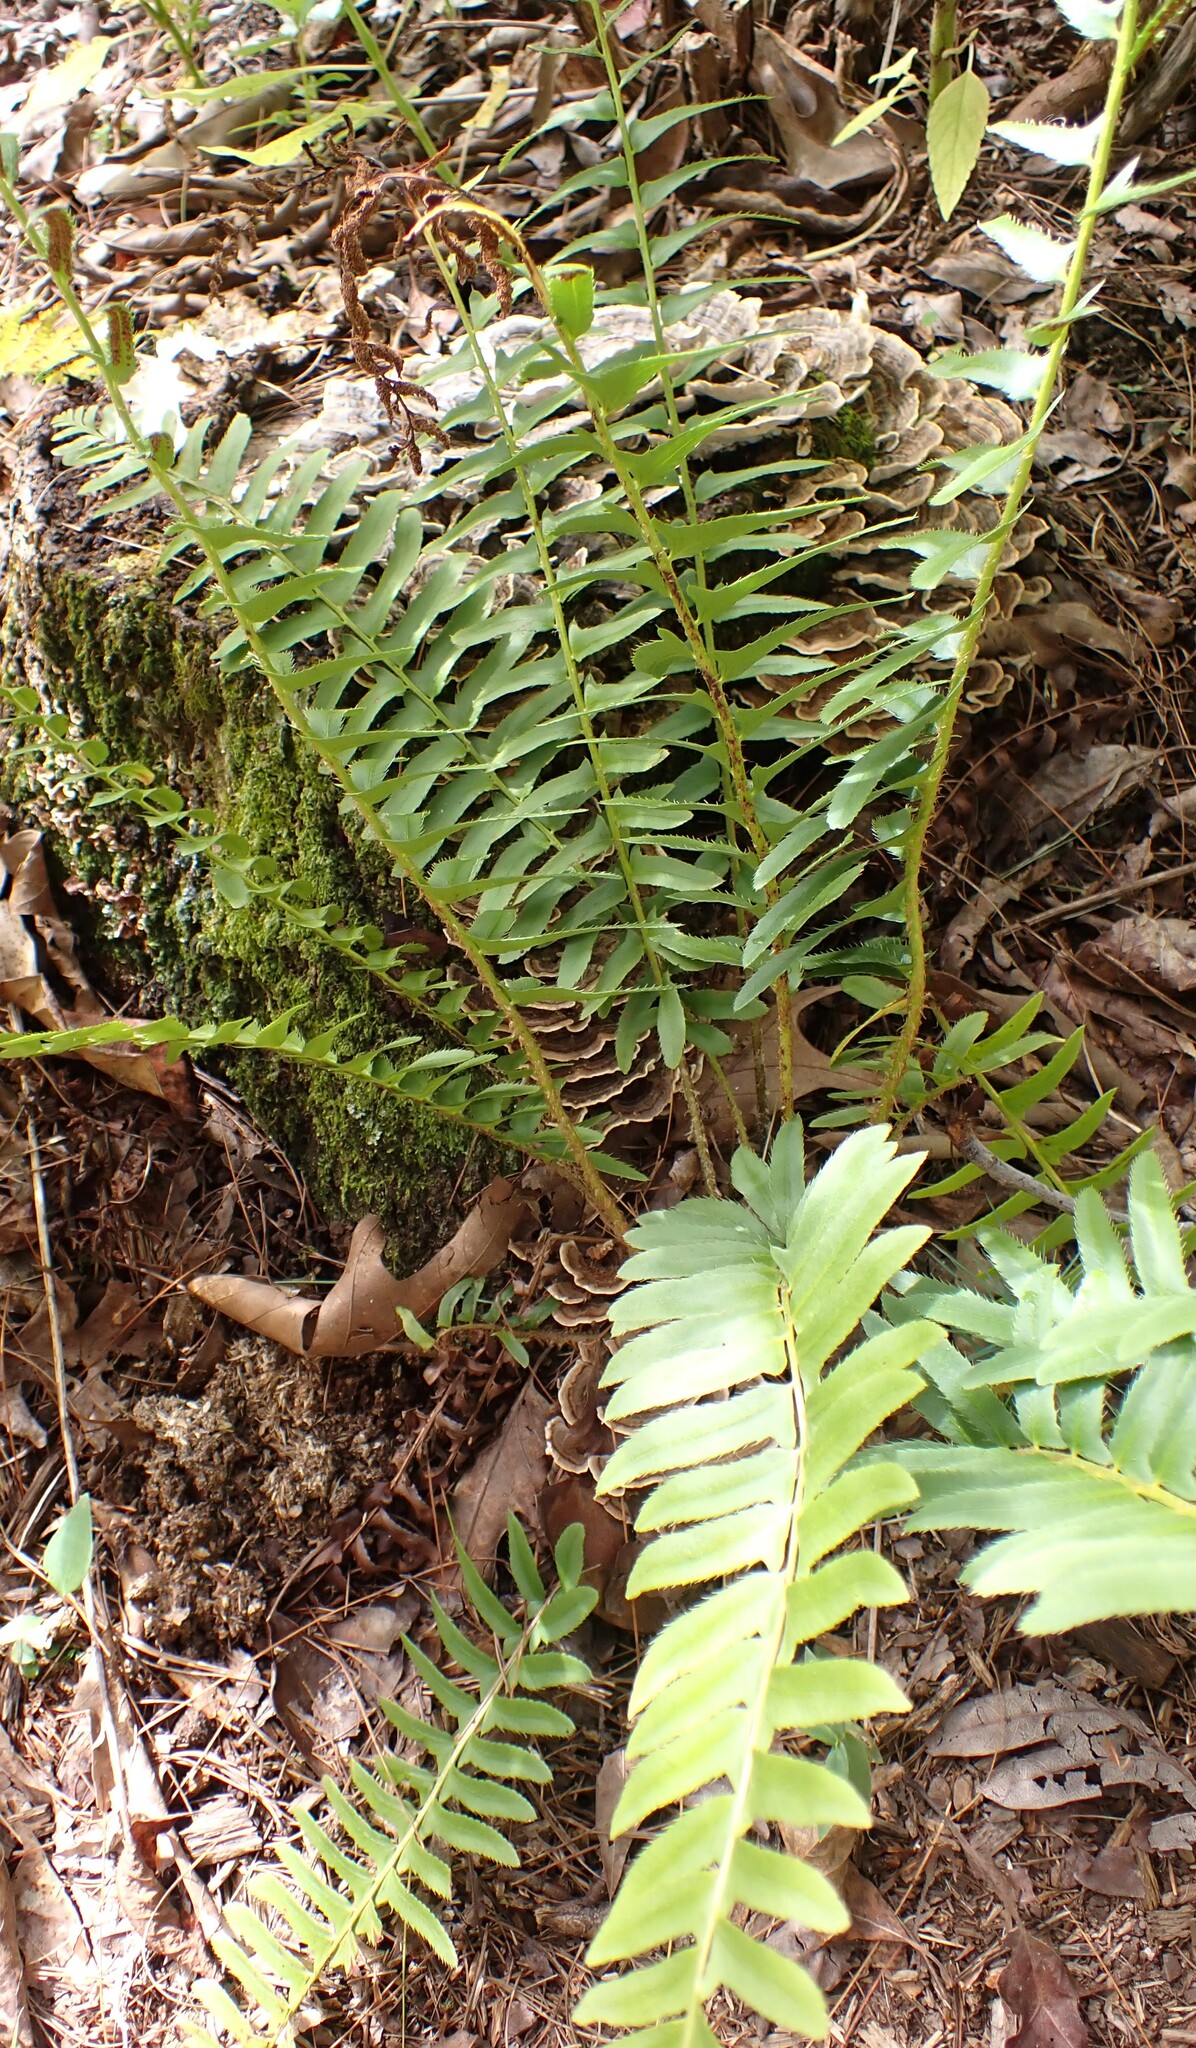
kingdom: Plantae
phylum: Tracheophyta
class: Polypodiopsida
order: Polypodiales
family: Dryopteridaceae
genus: Polystichum
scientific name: Polystichum acrostichoides
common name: Christmas fern
